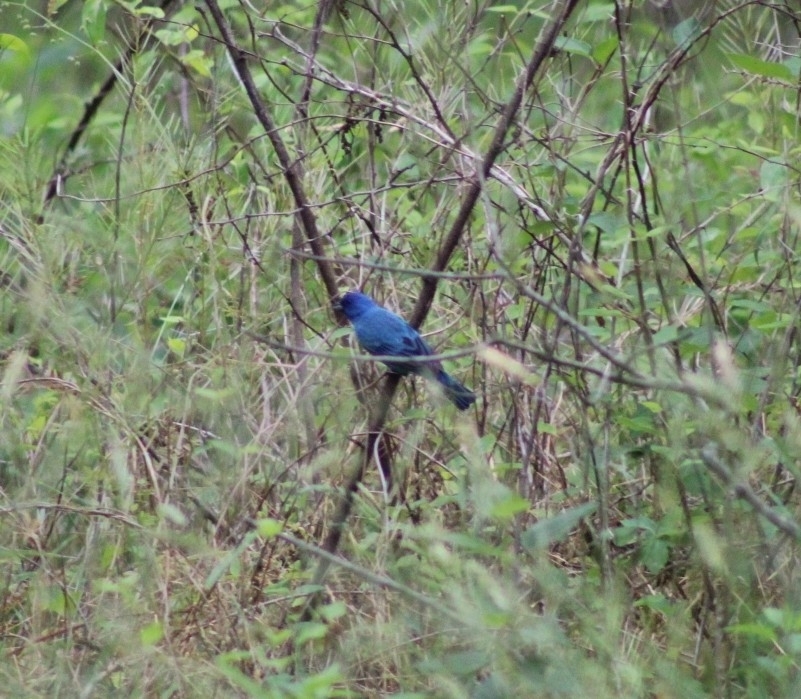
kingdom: Animalia
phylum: Chordata
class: Aves
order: Passeriformes
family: Cardinalidae
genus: Passerina
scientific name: Passerina cyanea
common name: Indigo bunting
